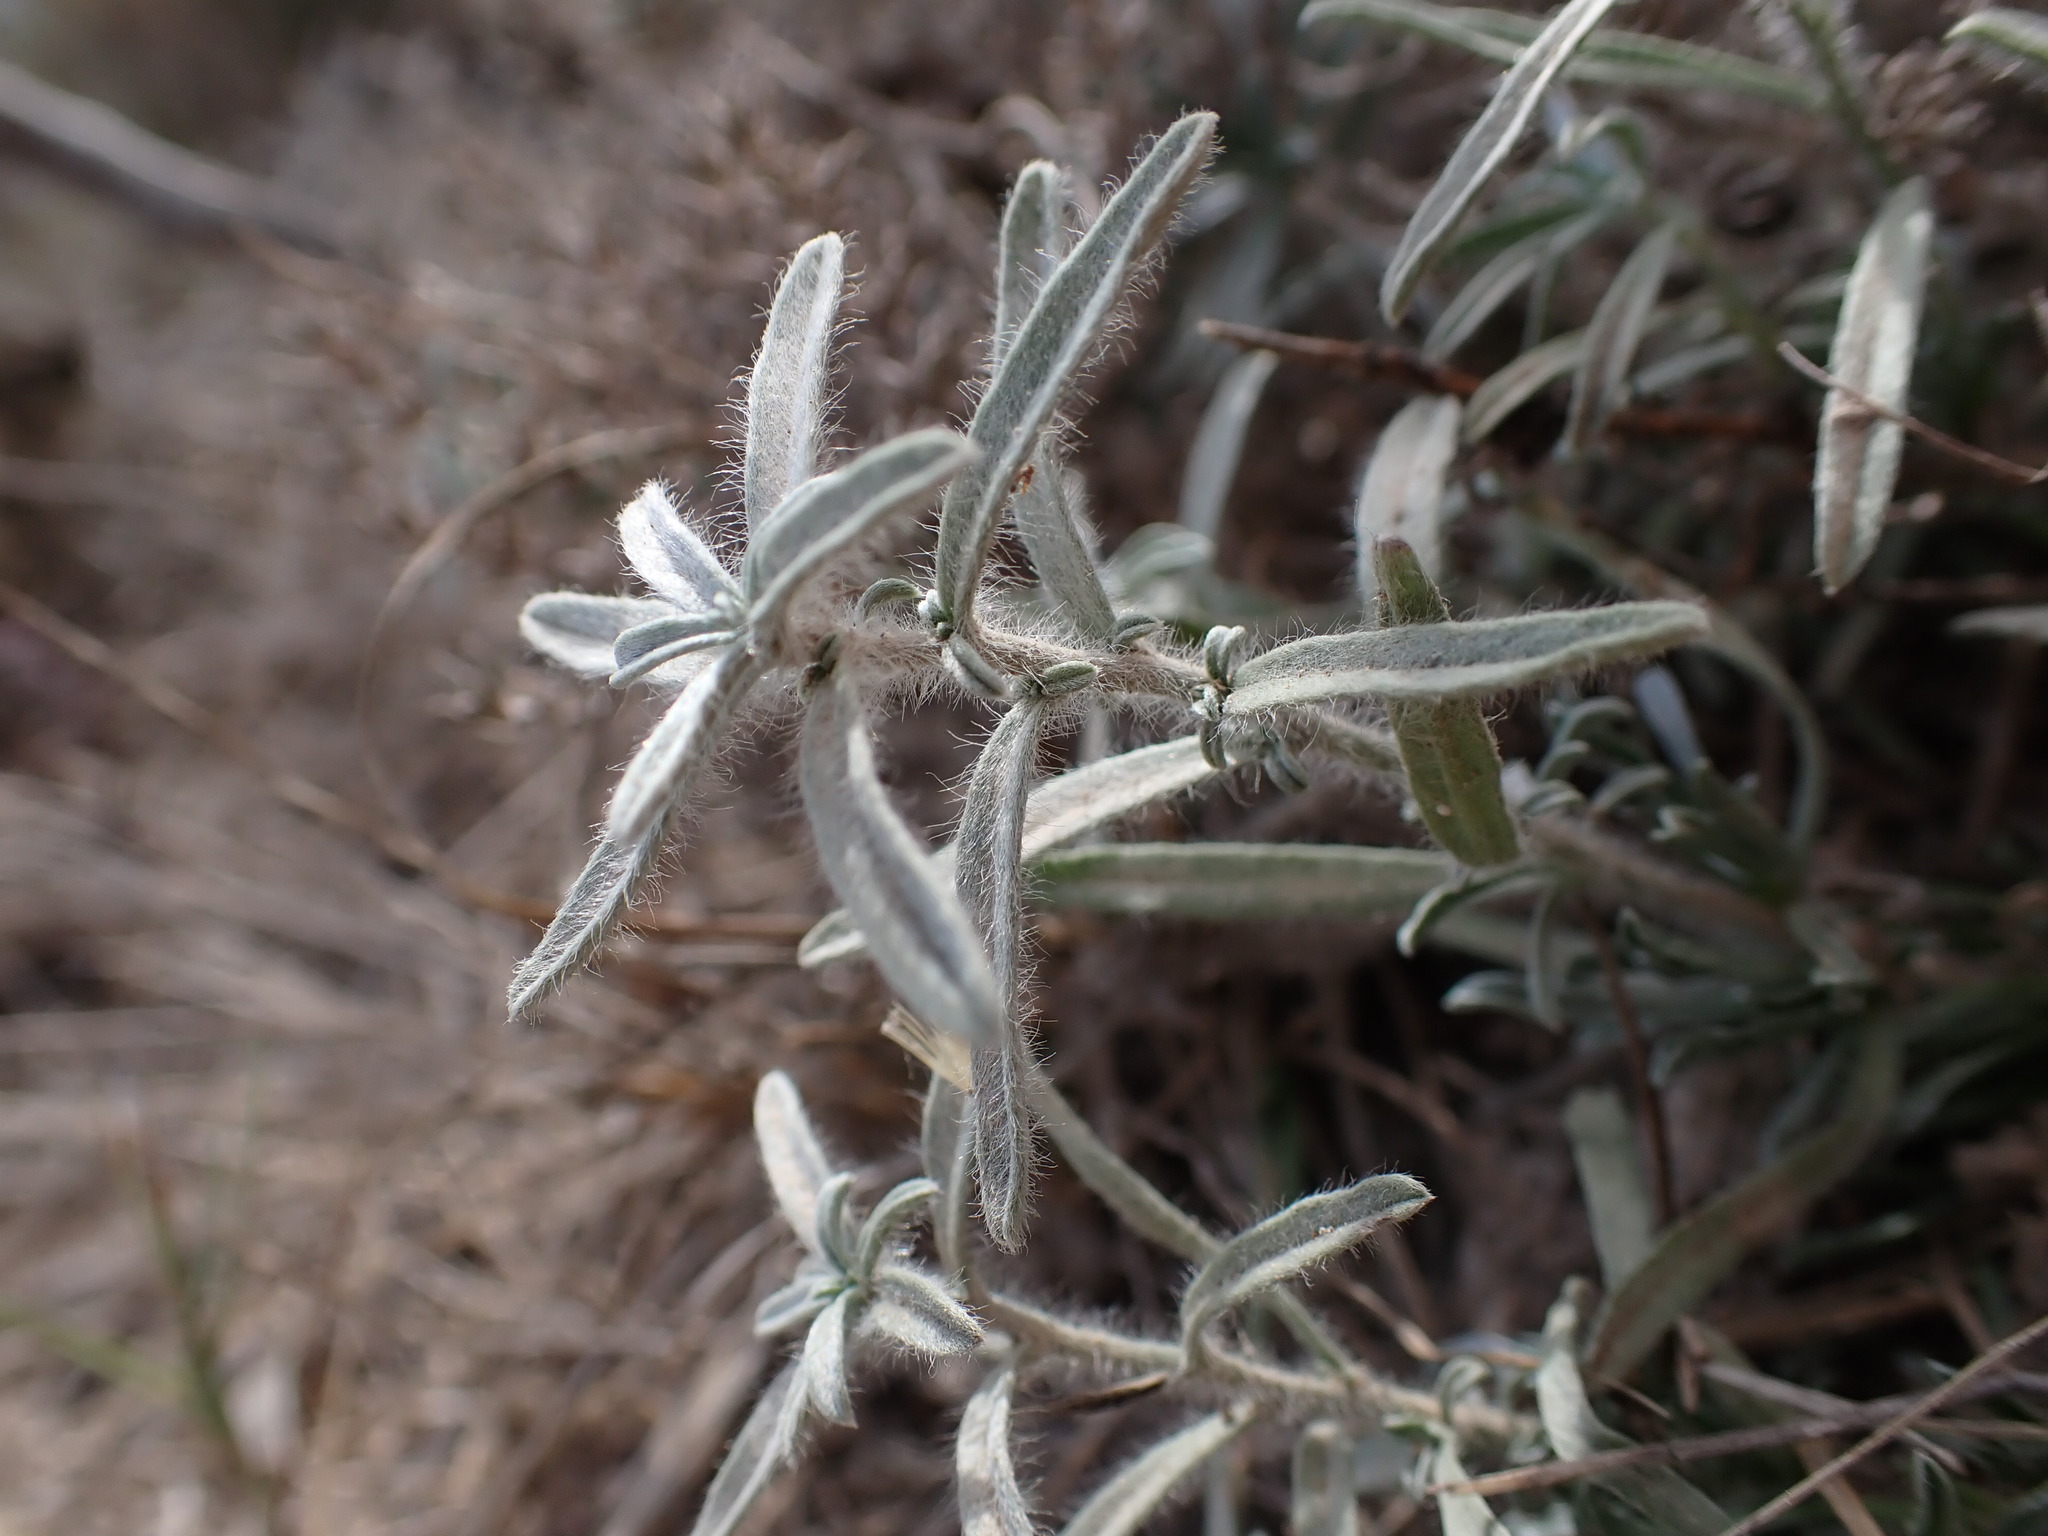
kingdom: Plantae
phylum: Tracheophyta
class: Magnoliopsida
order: Solanales
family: Convolvulaceae
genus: Convolvulus
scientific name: Convolvulus lanuginosus
